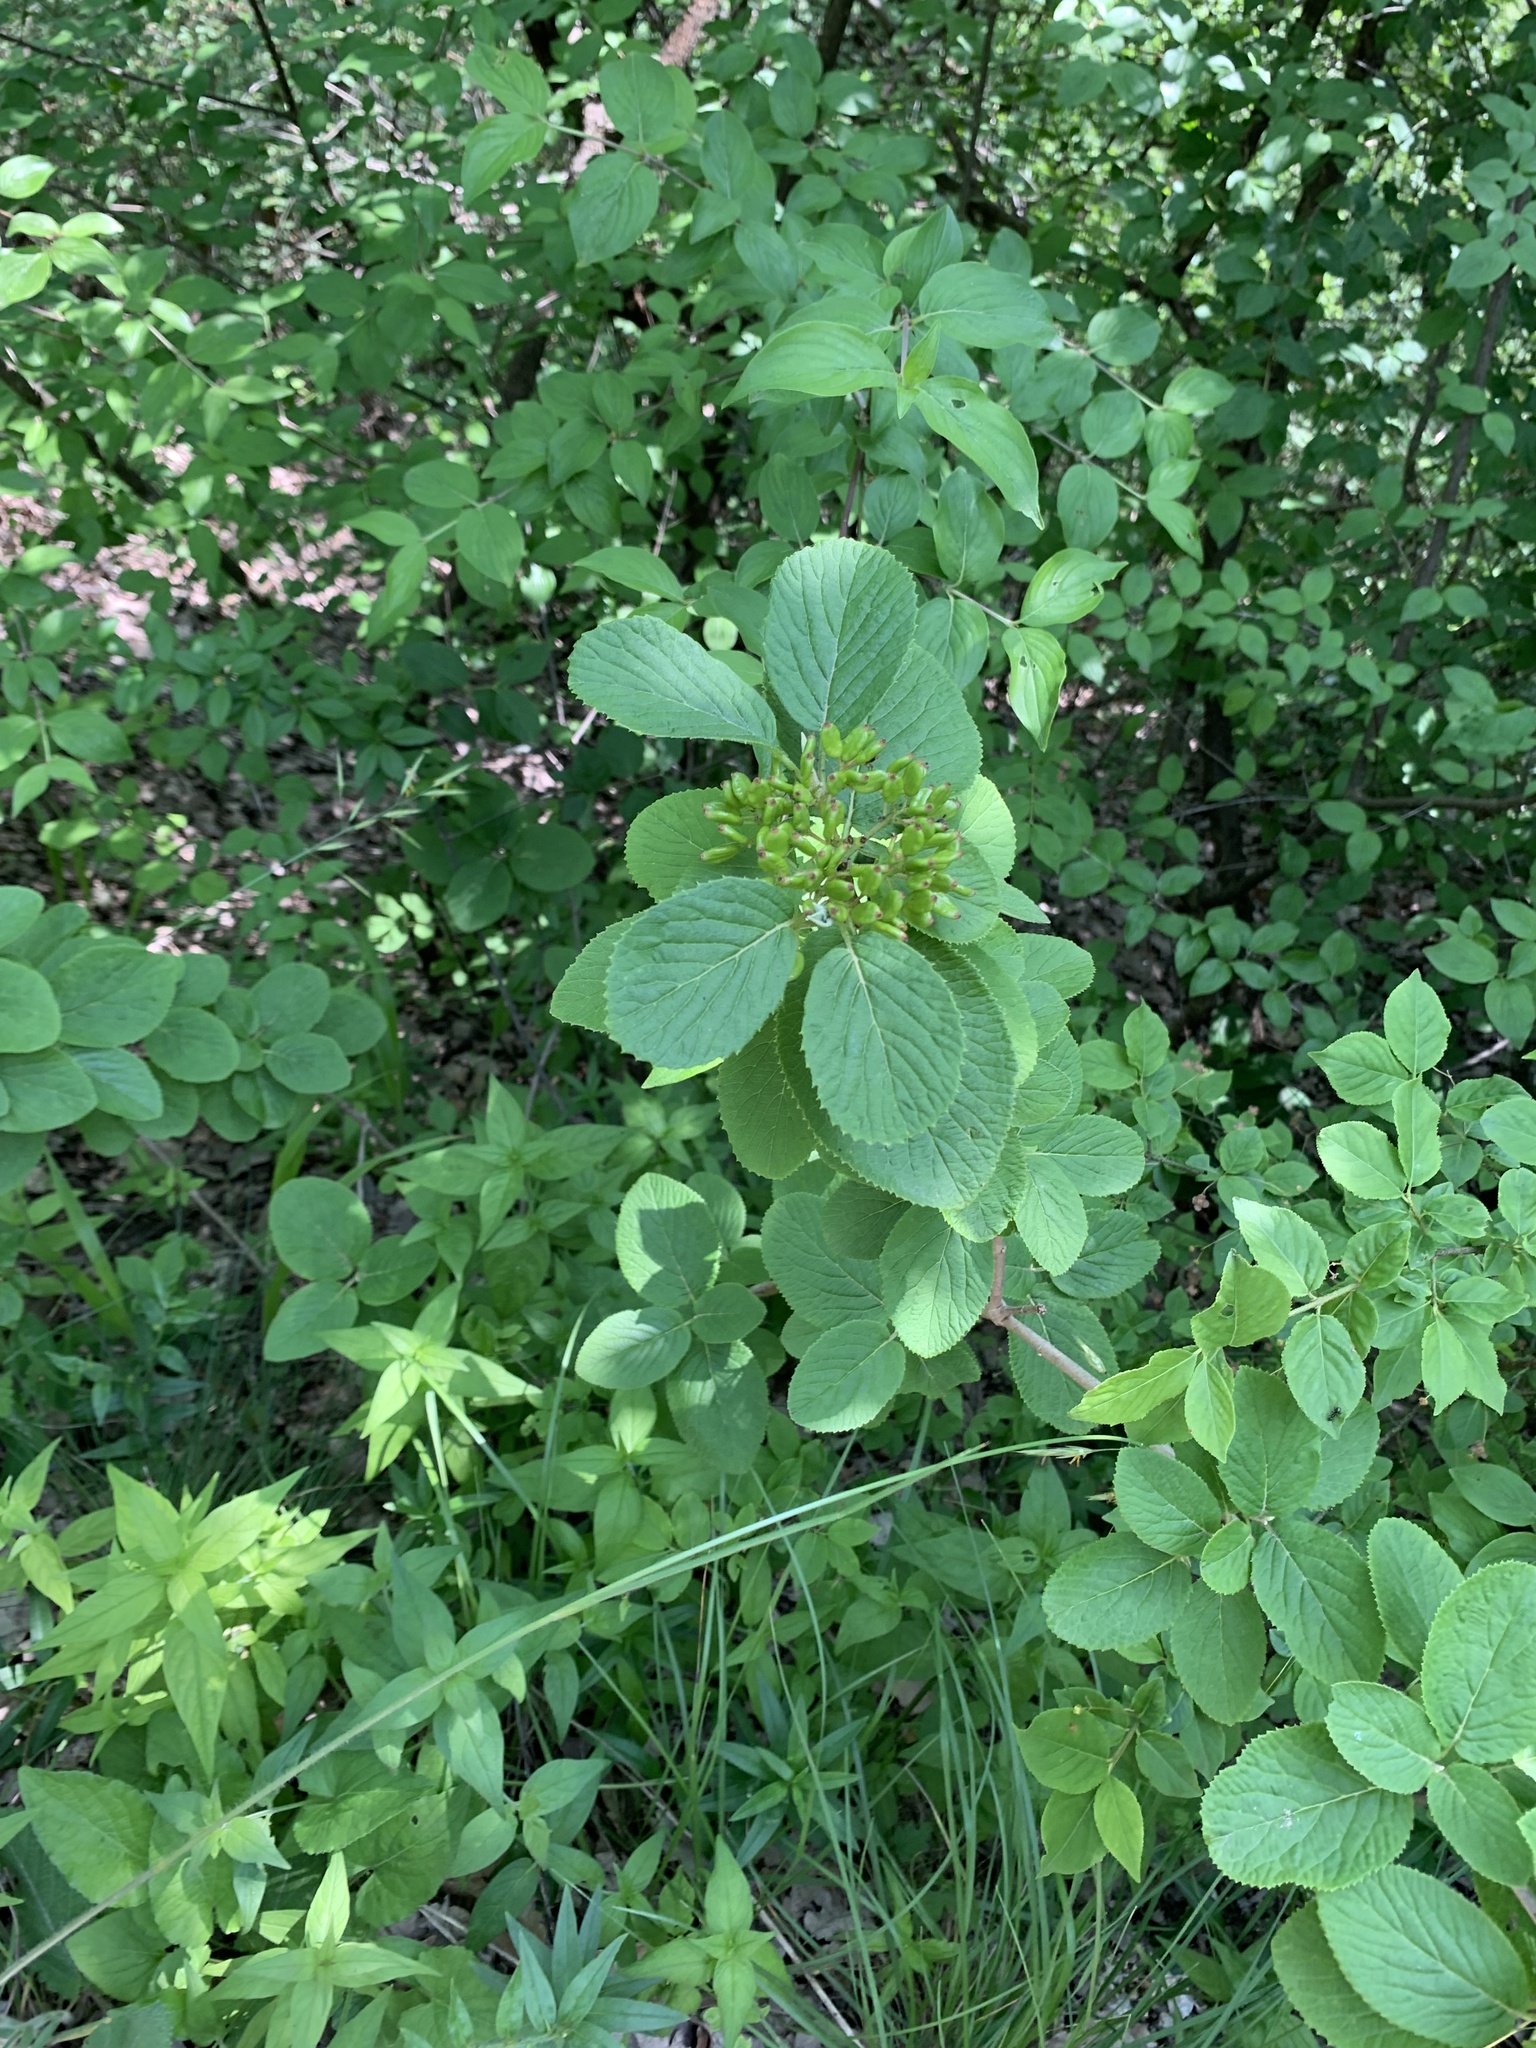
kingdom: Plantae
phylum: Tracheophyta
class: Magnoliopsida
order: Dipsacales
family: Viburnaceae
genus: Viburnum
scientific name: Viburnum lantana
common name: Wayfaring tree
